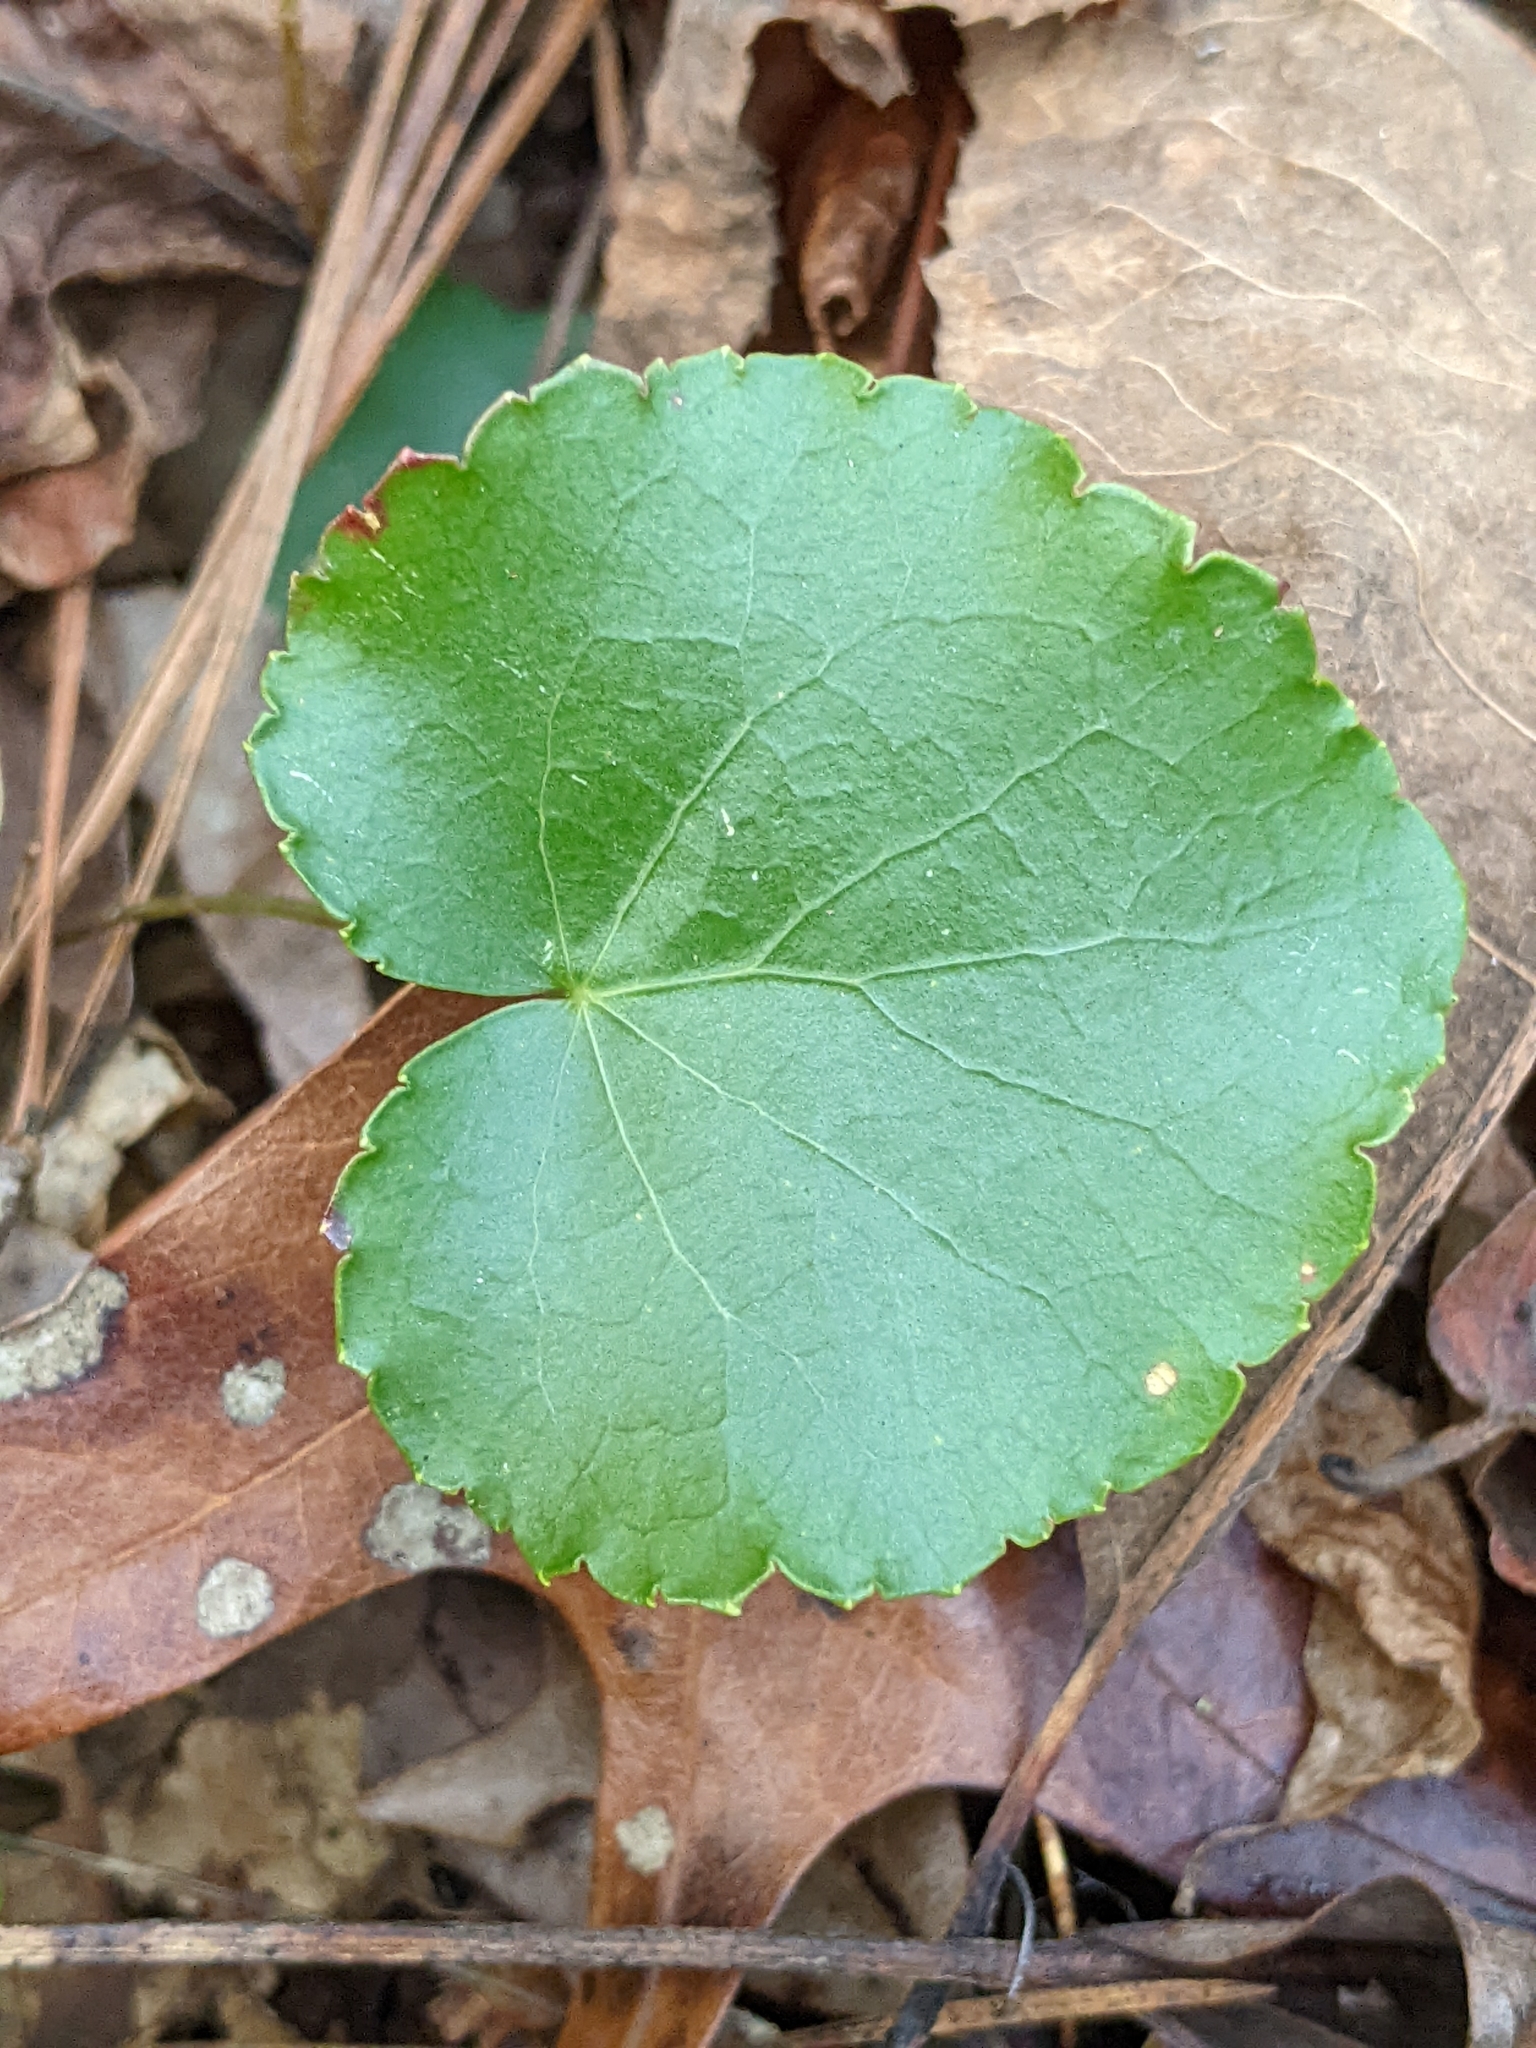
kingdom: Plantae
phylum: Tracheophyta
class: Magnoliopsida
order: Ericales
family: Diapensiaceae
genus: Galax
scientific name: Galax urceolata
